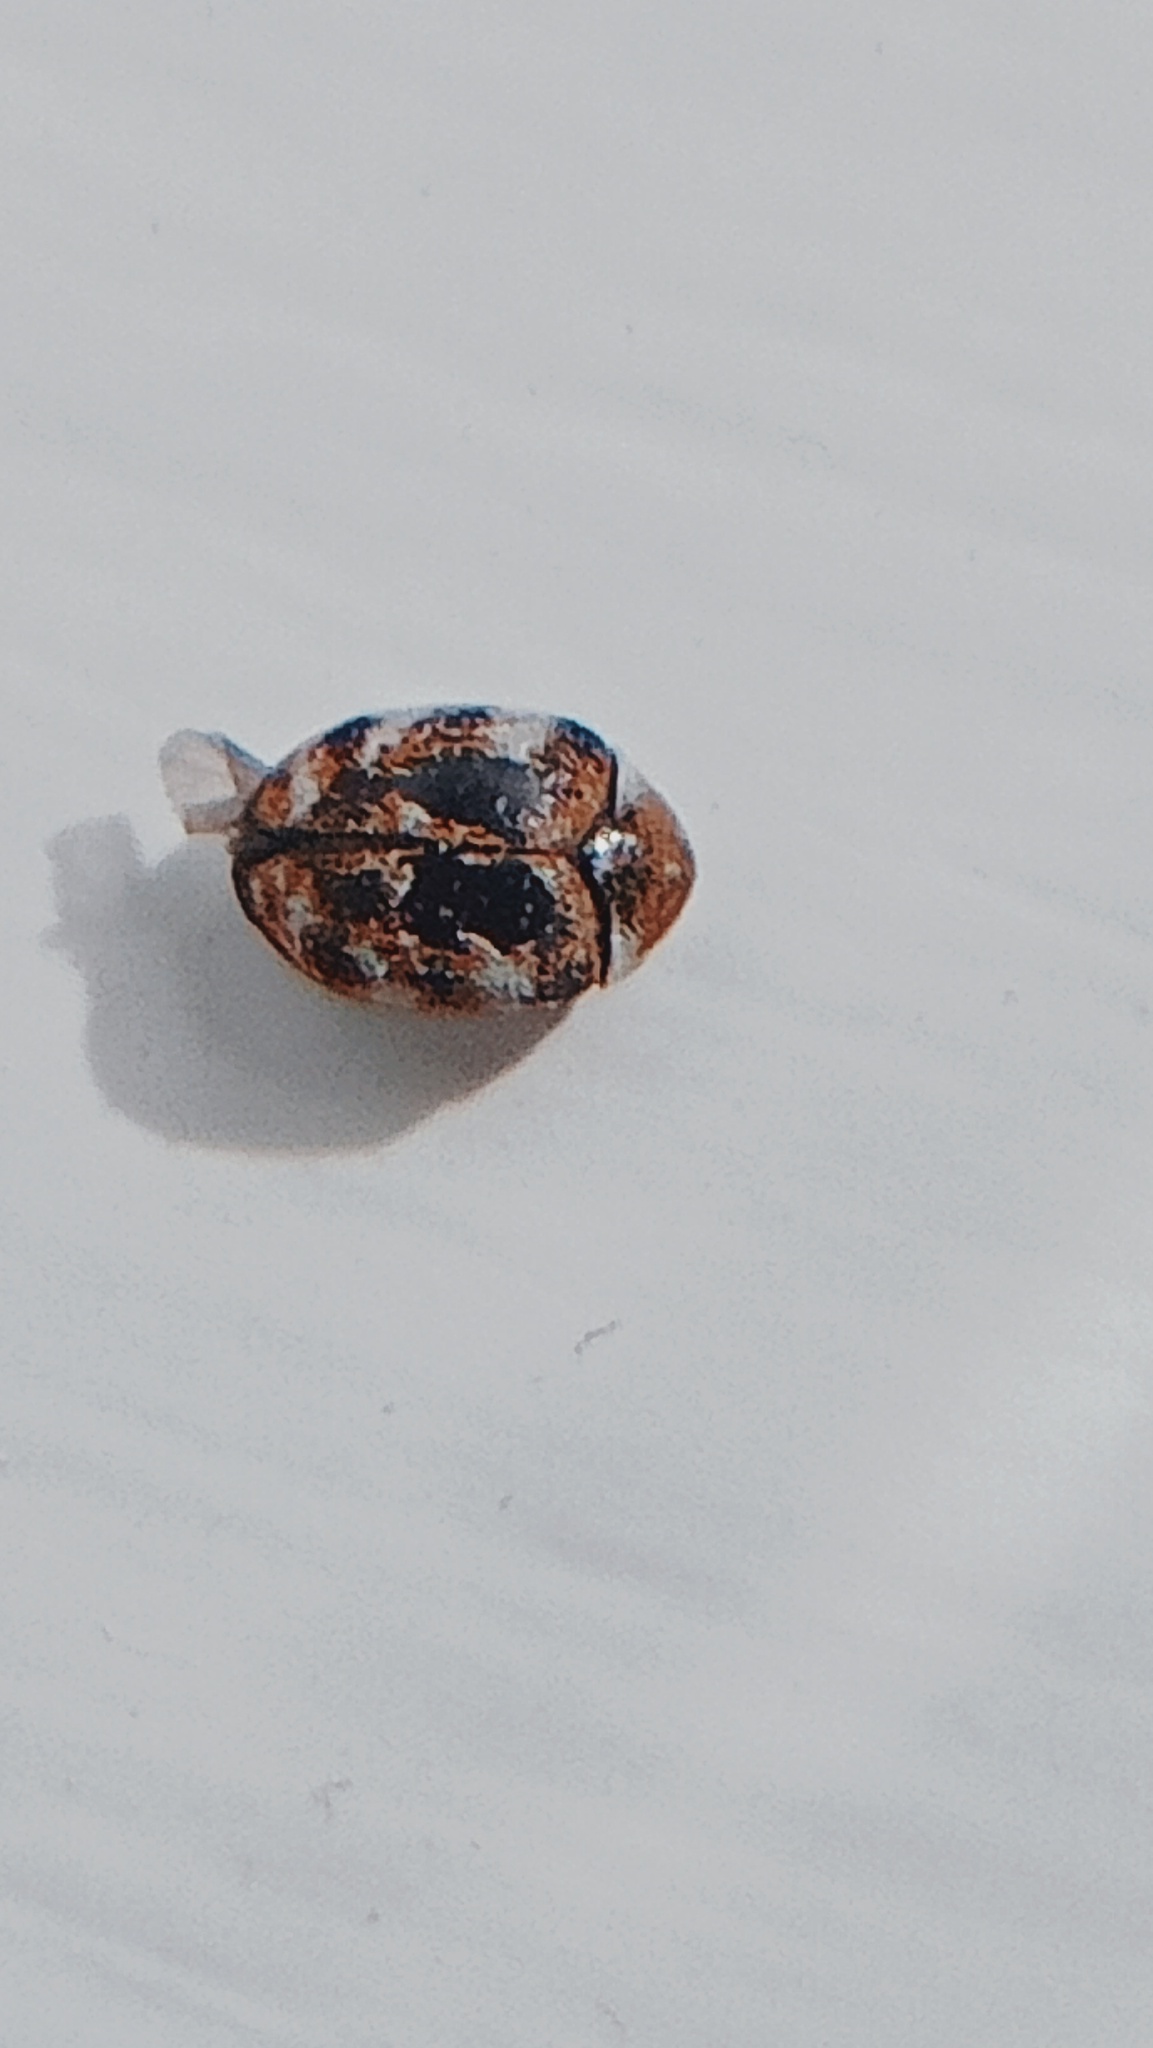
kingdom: Animalia
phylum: Arthropoda
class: Insecta
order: Coleoptera
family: Dermestidae
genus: Anthrenus
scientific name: Anthrenus verbasci
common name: Varied carpet beetle
